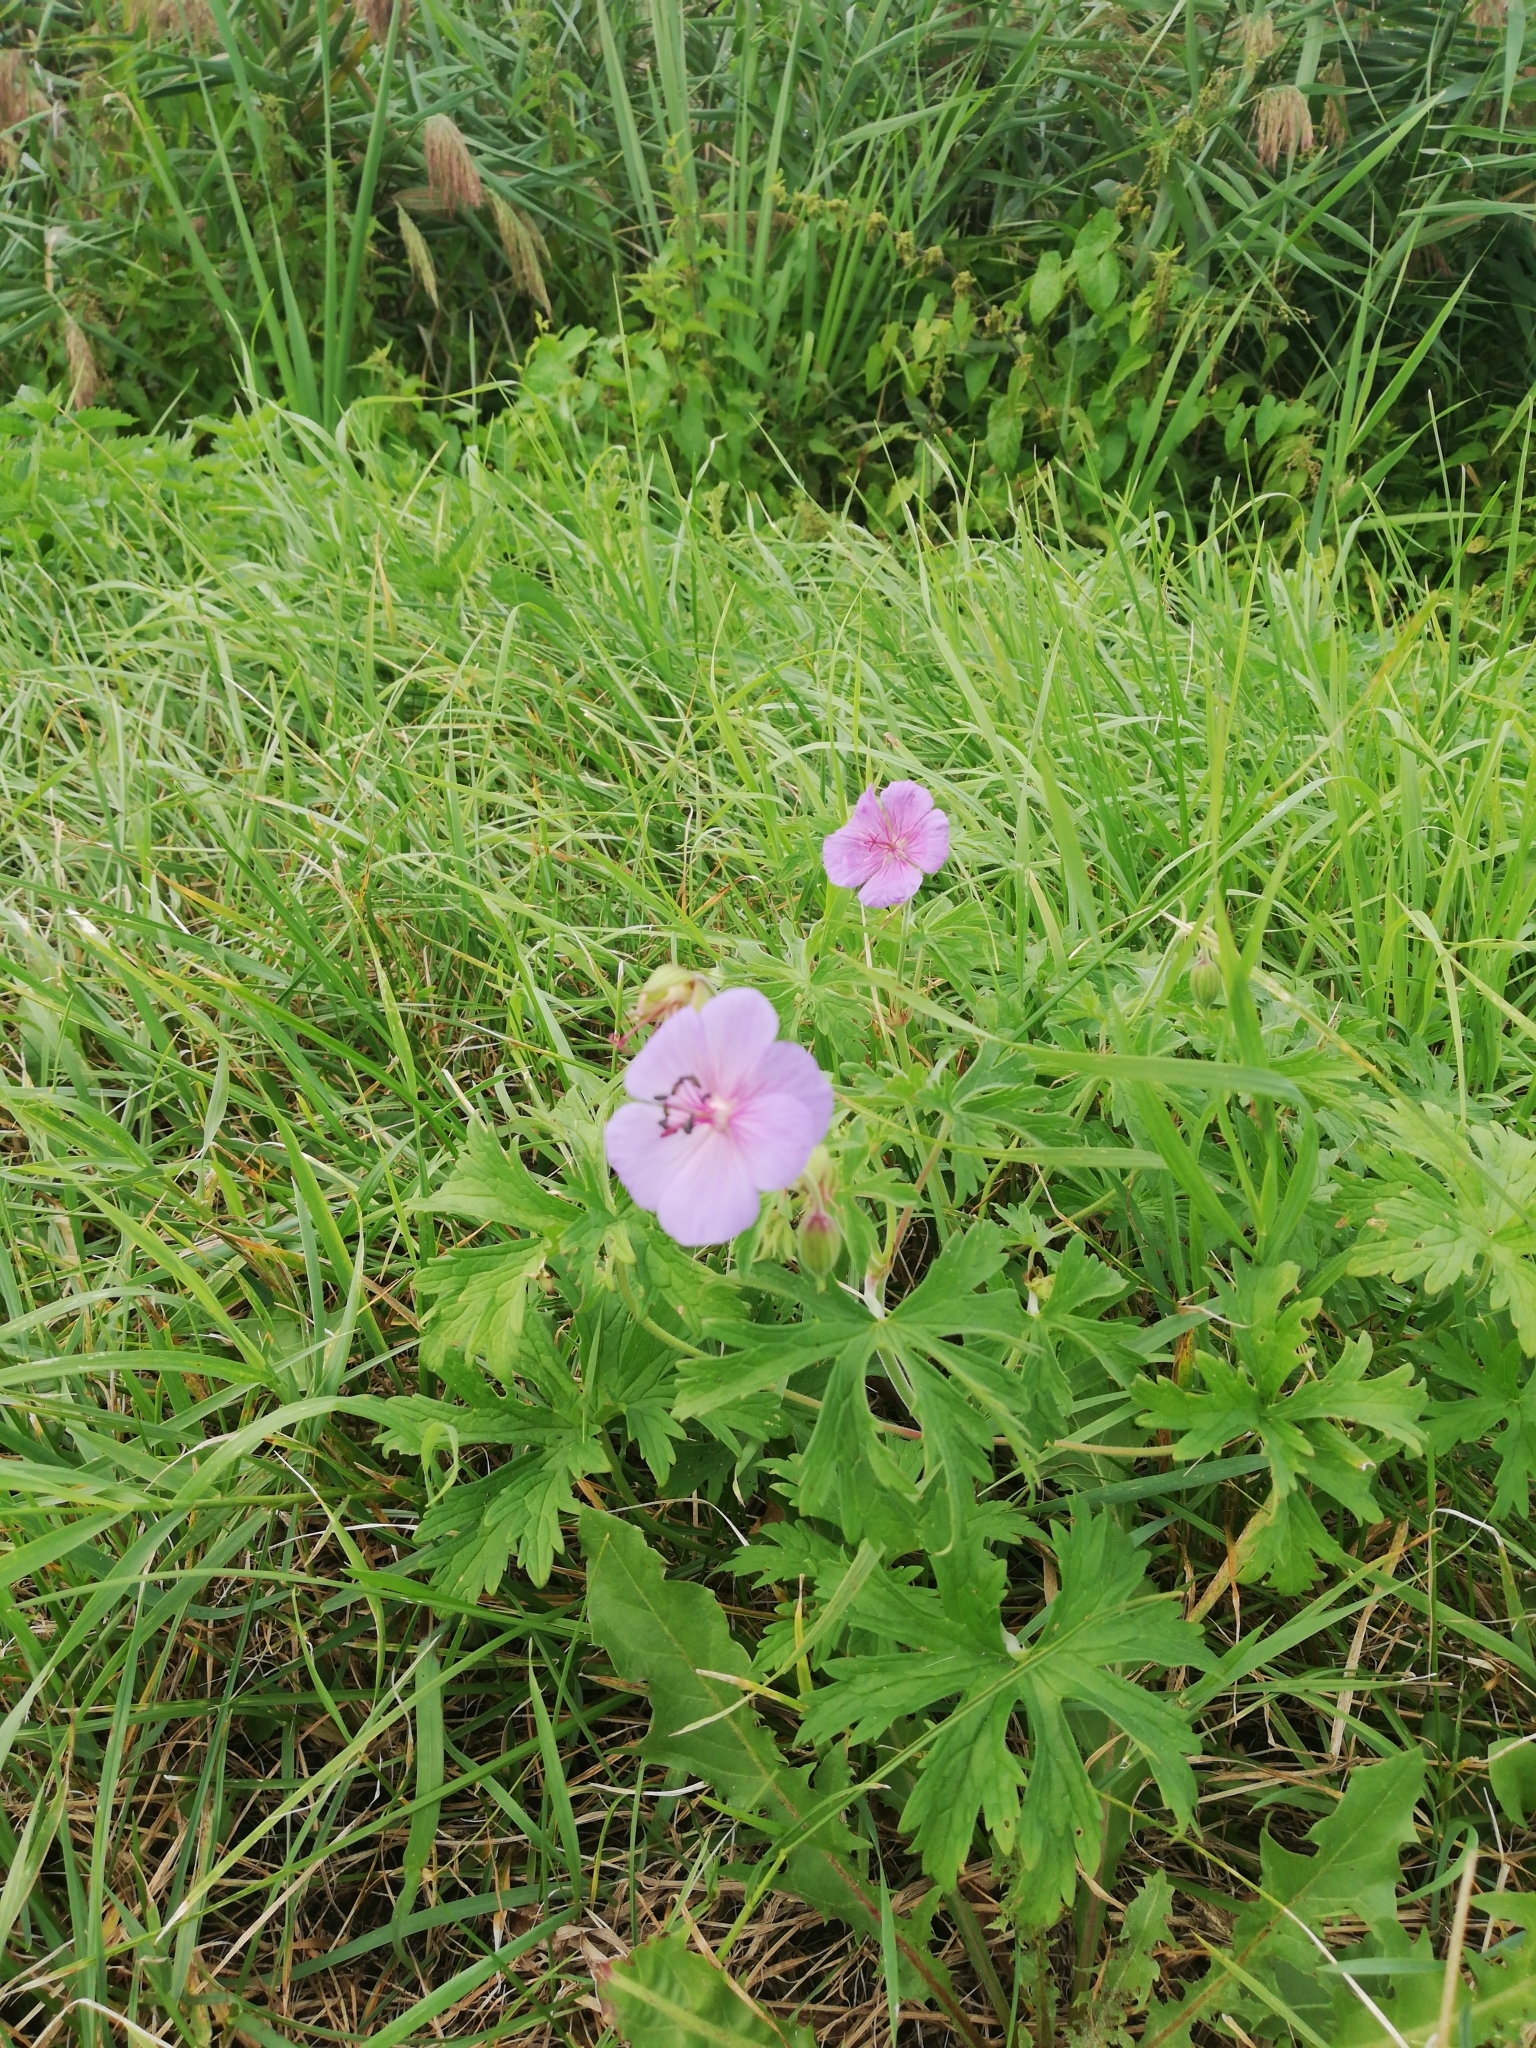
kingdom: Plantae
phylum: Tracheophyta
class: Magnoliopsida
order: Geraniales
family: Geraniaceae
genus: Geranium
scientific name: Geranium pratense
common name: Meadow crane's-bill
